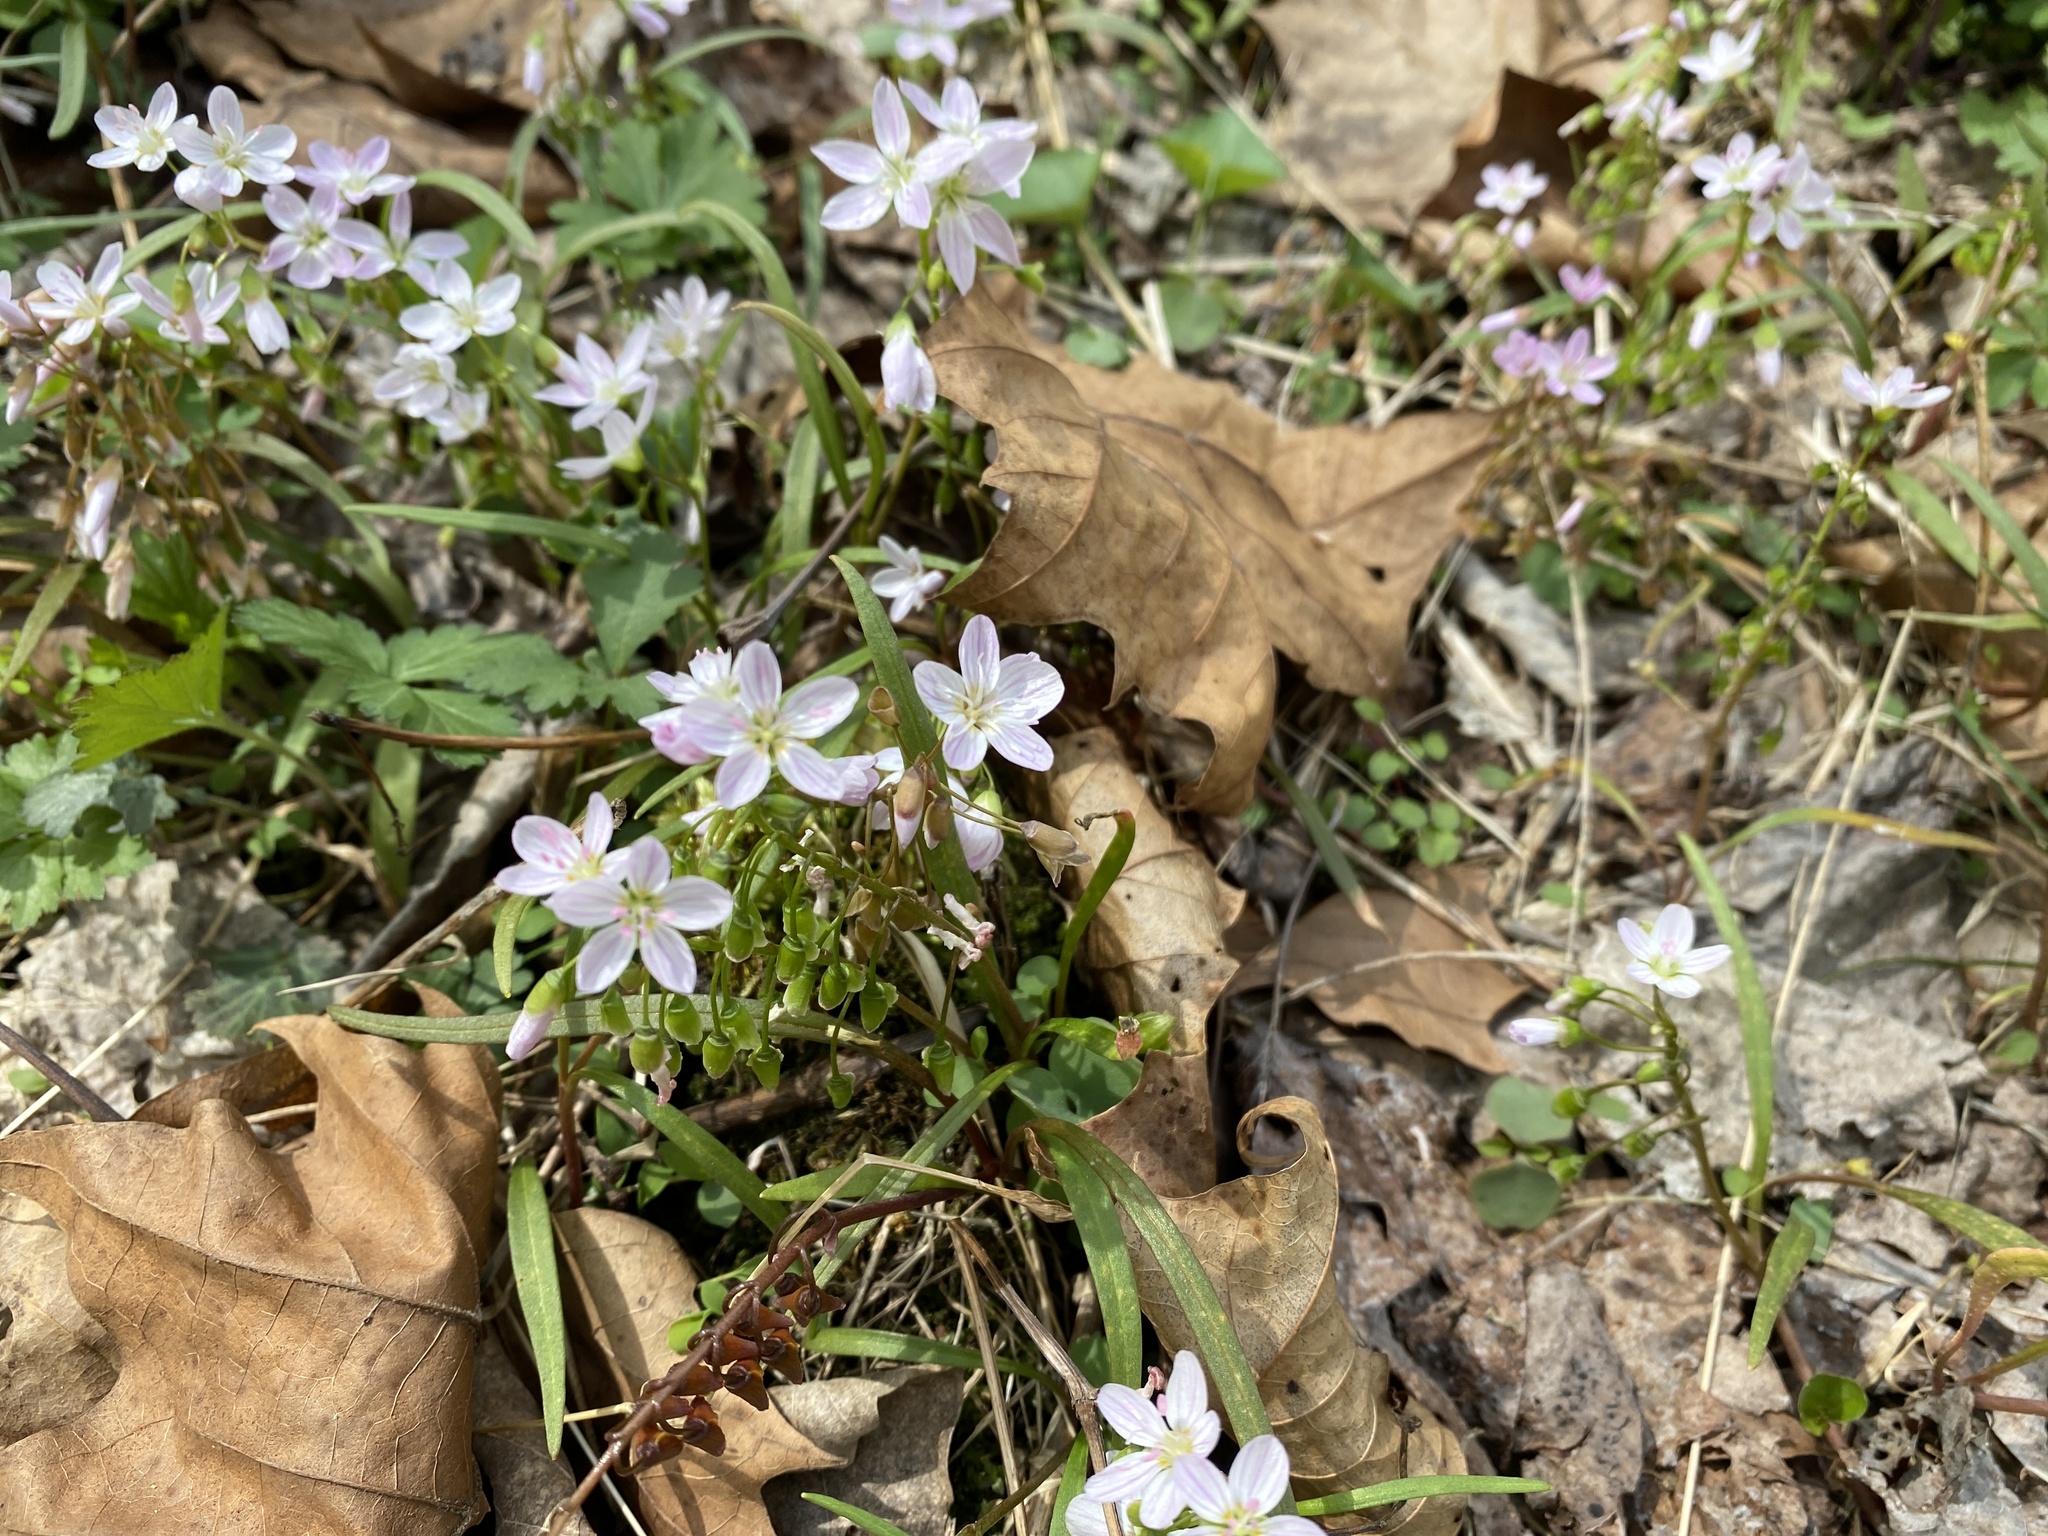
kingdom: Plantae
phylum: Tracheophyta
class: Magnoliopsida
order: Caryophyllales
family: Montiaceae
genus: Claytonia
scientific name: Claytonia virginica
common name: Virginia springbeauty
